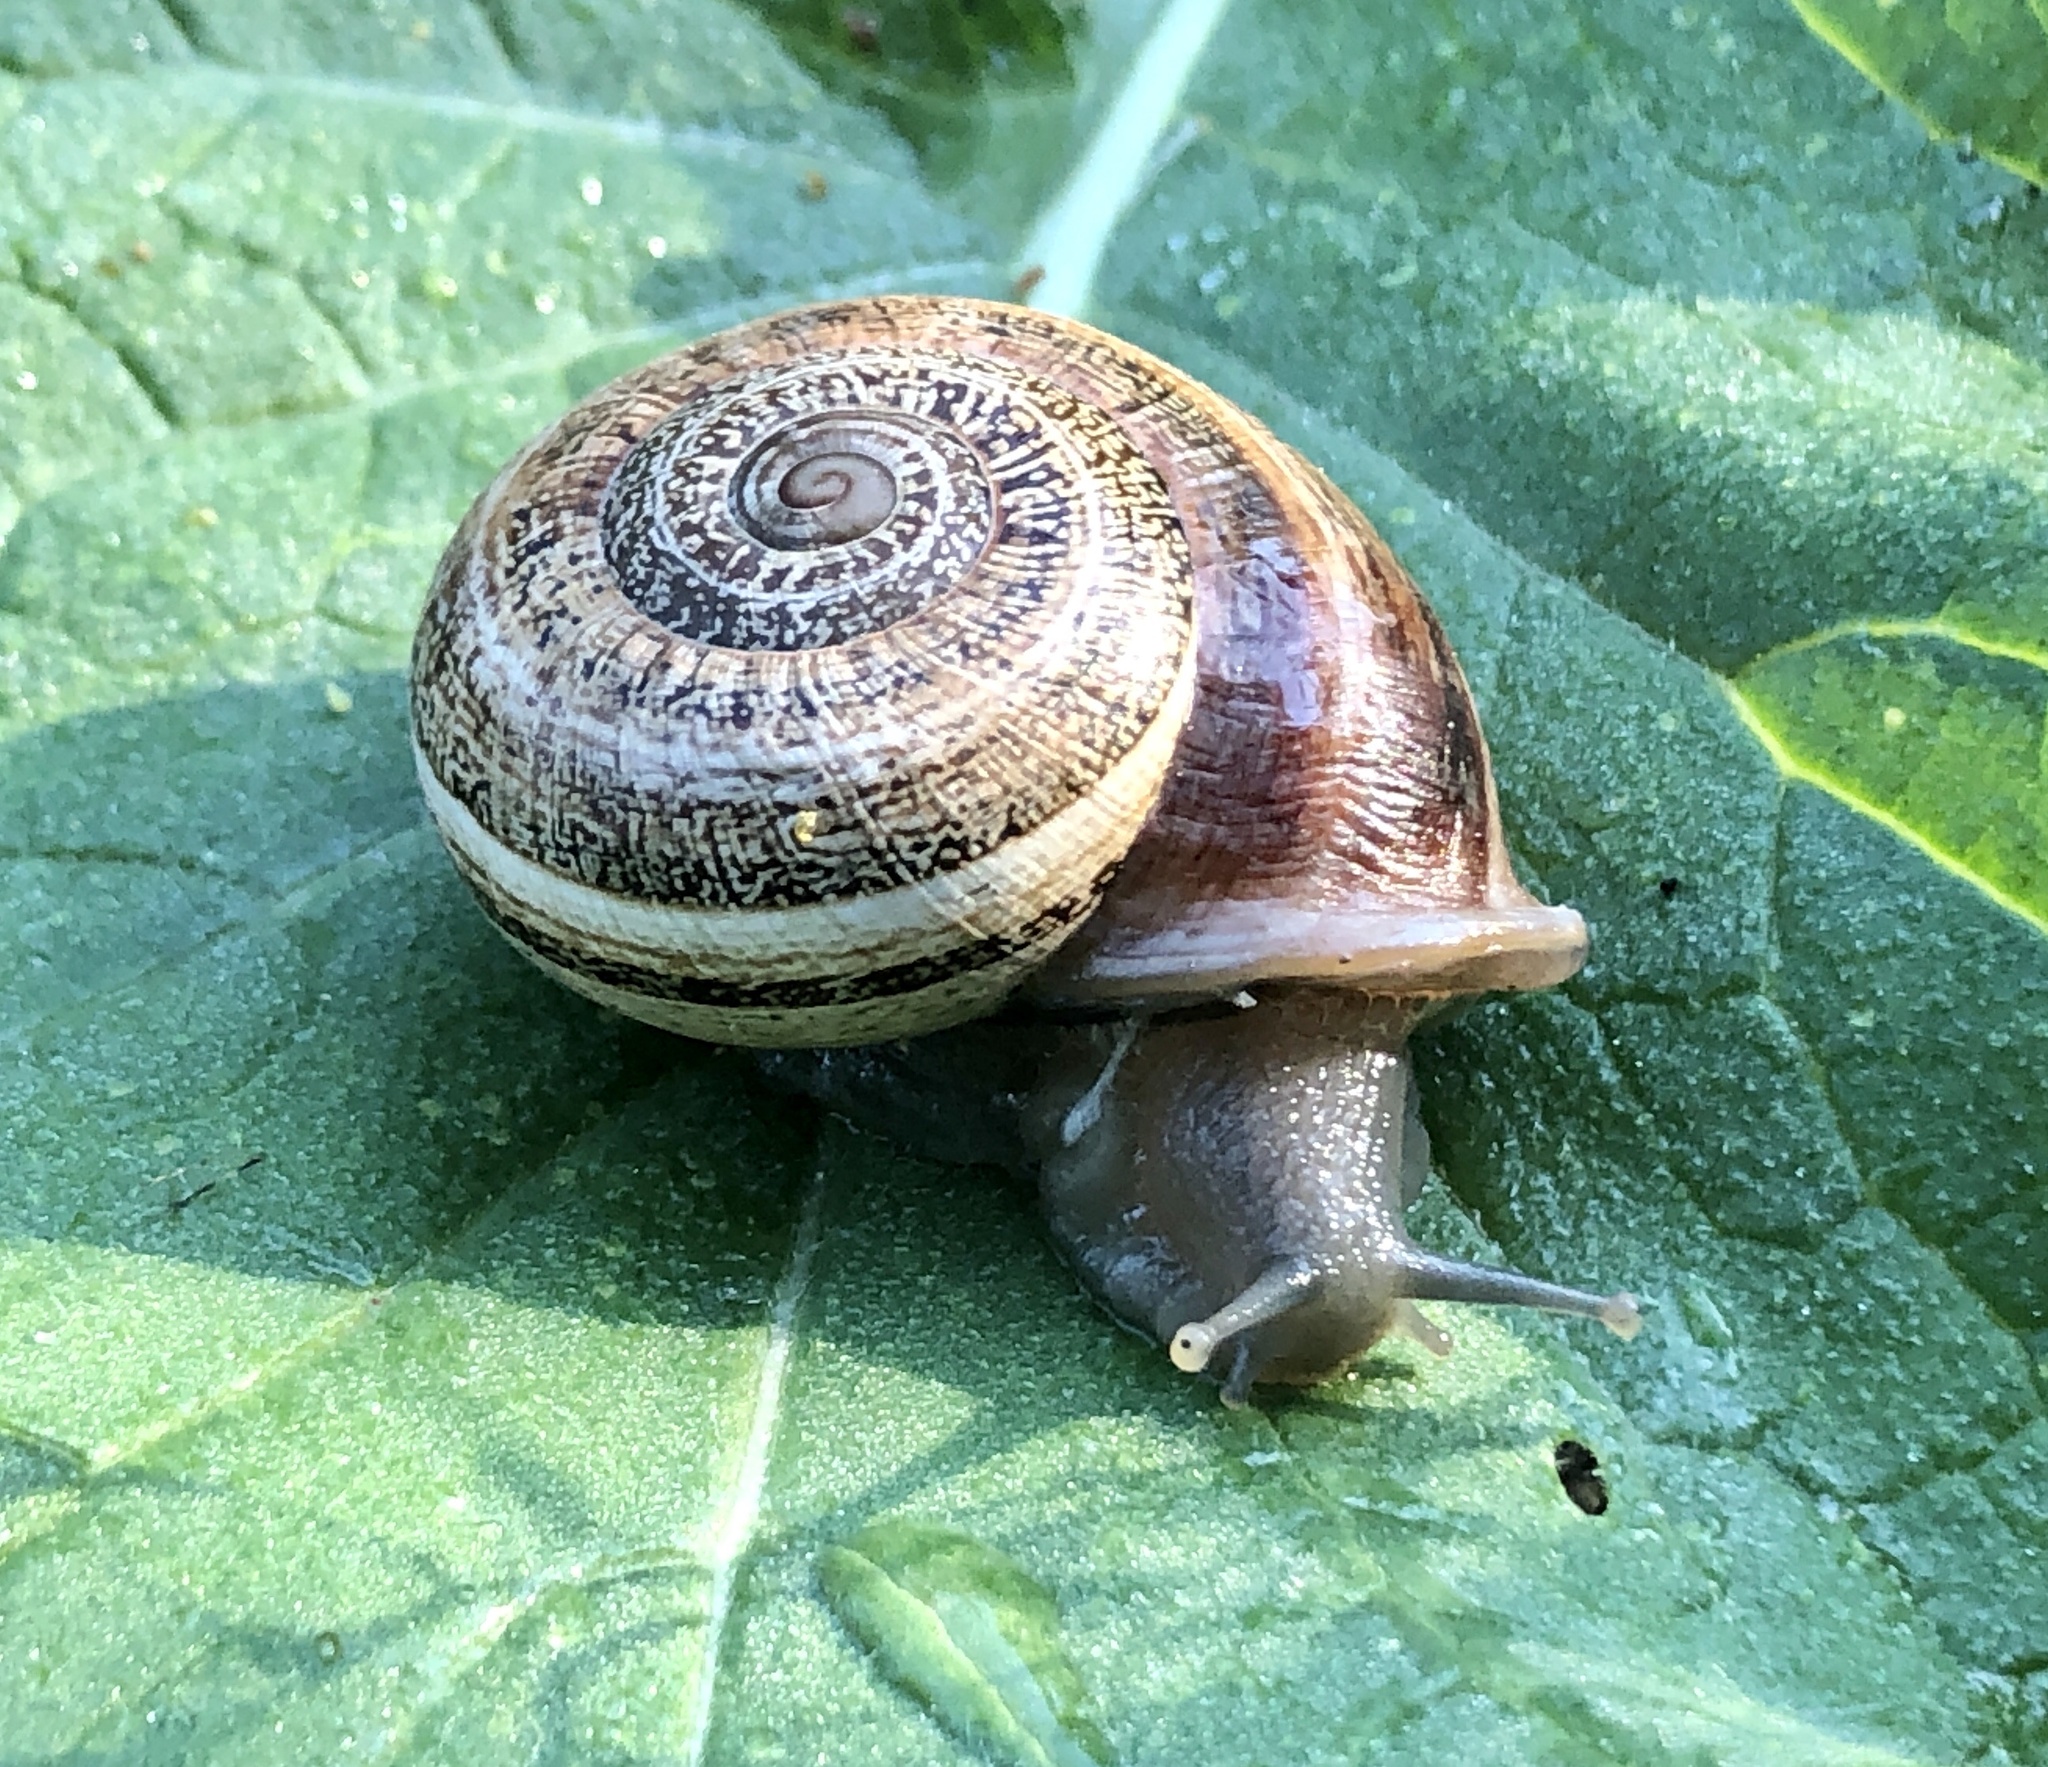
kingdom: Animalia
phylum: Mollusca
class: Gastropoda
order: Stylommatophora
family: Helicidae
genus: Otala
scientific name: Otala lactea
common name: Milk snail
